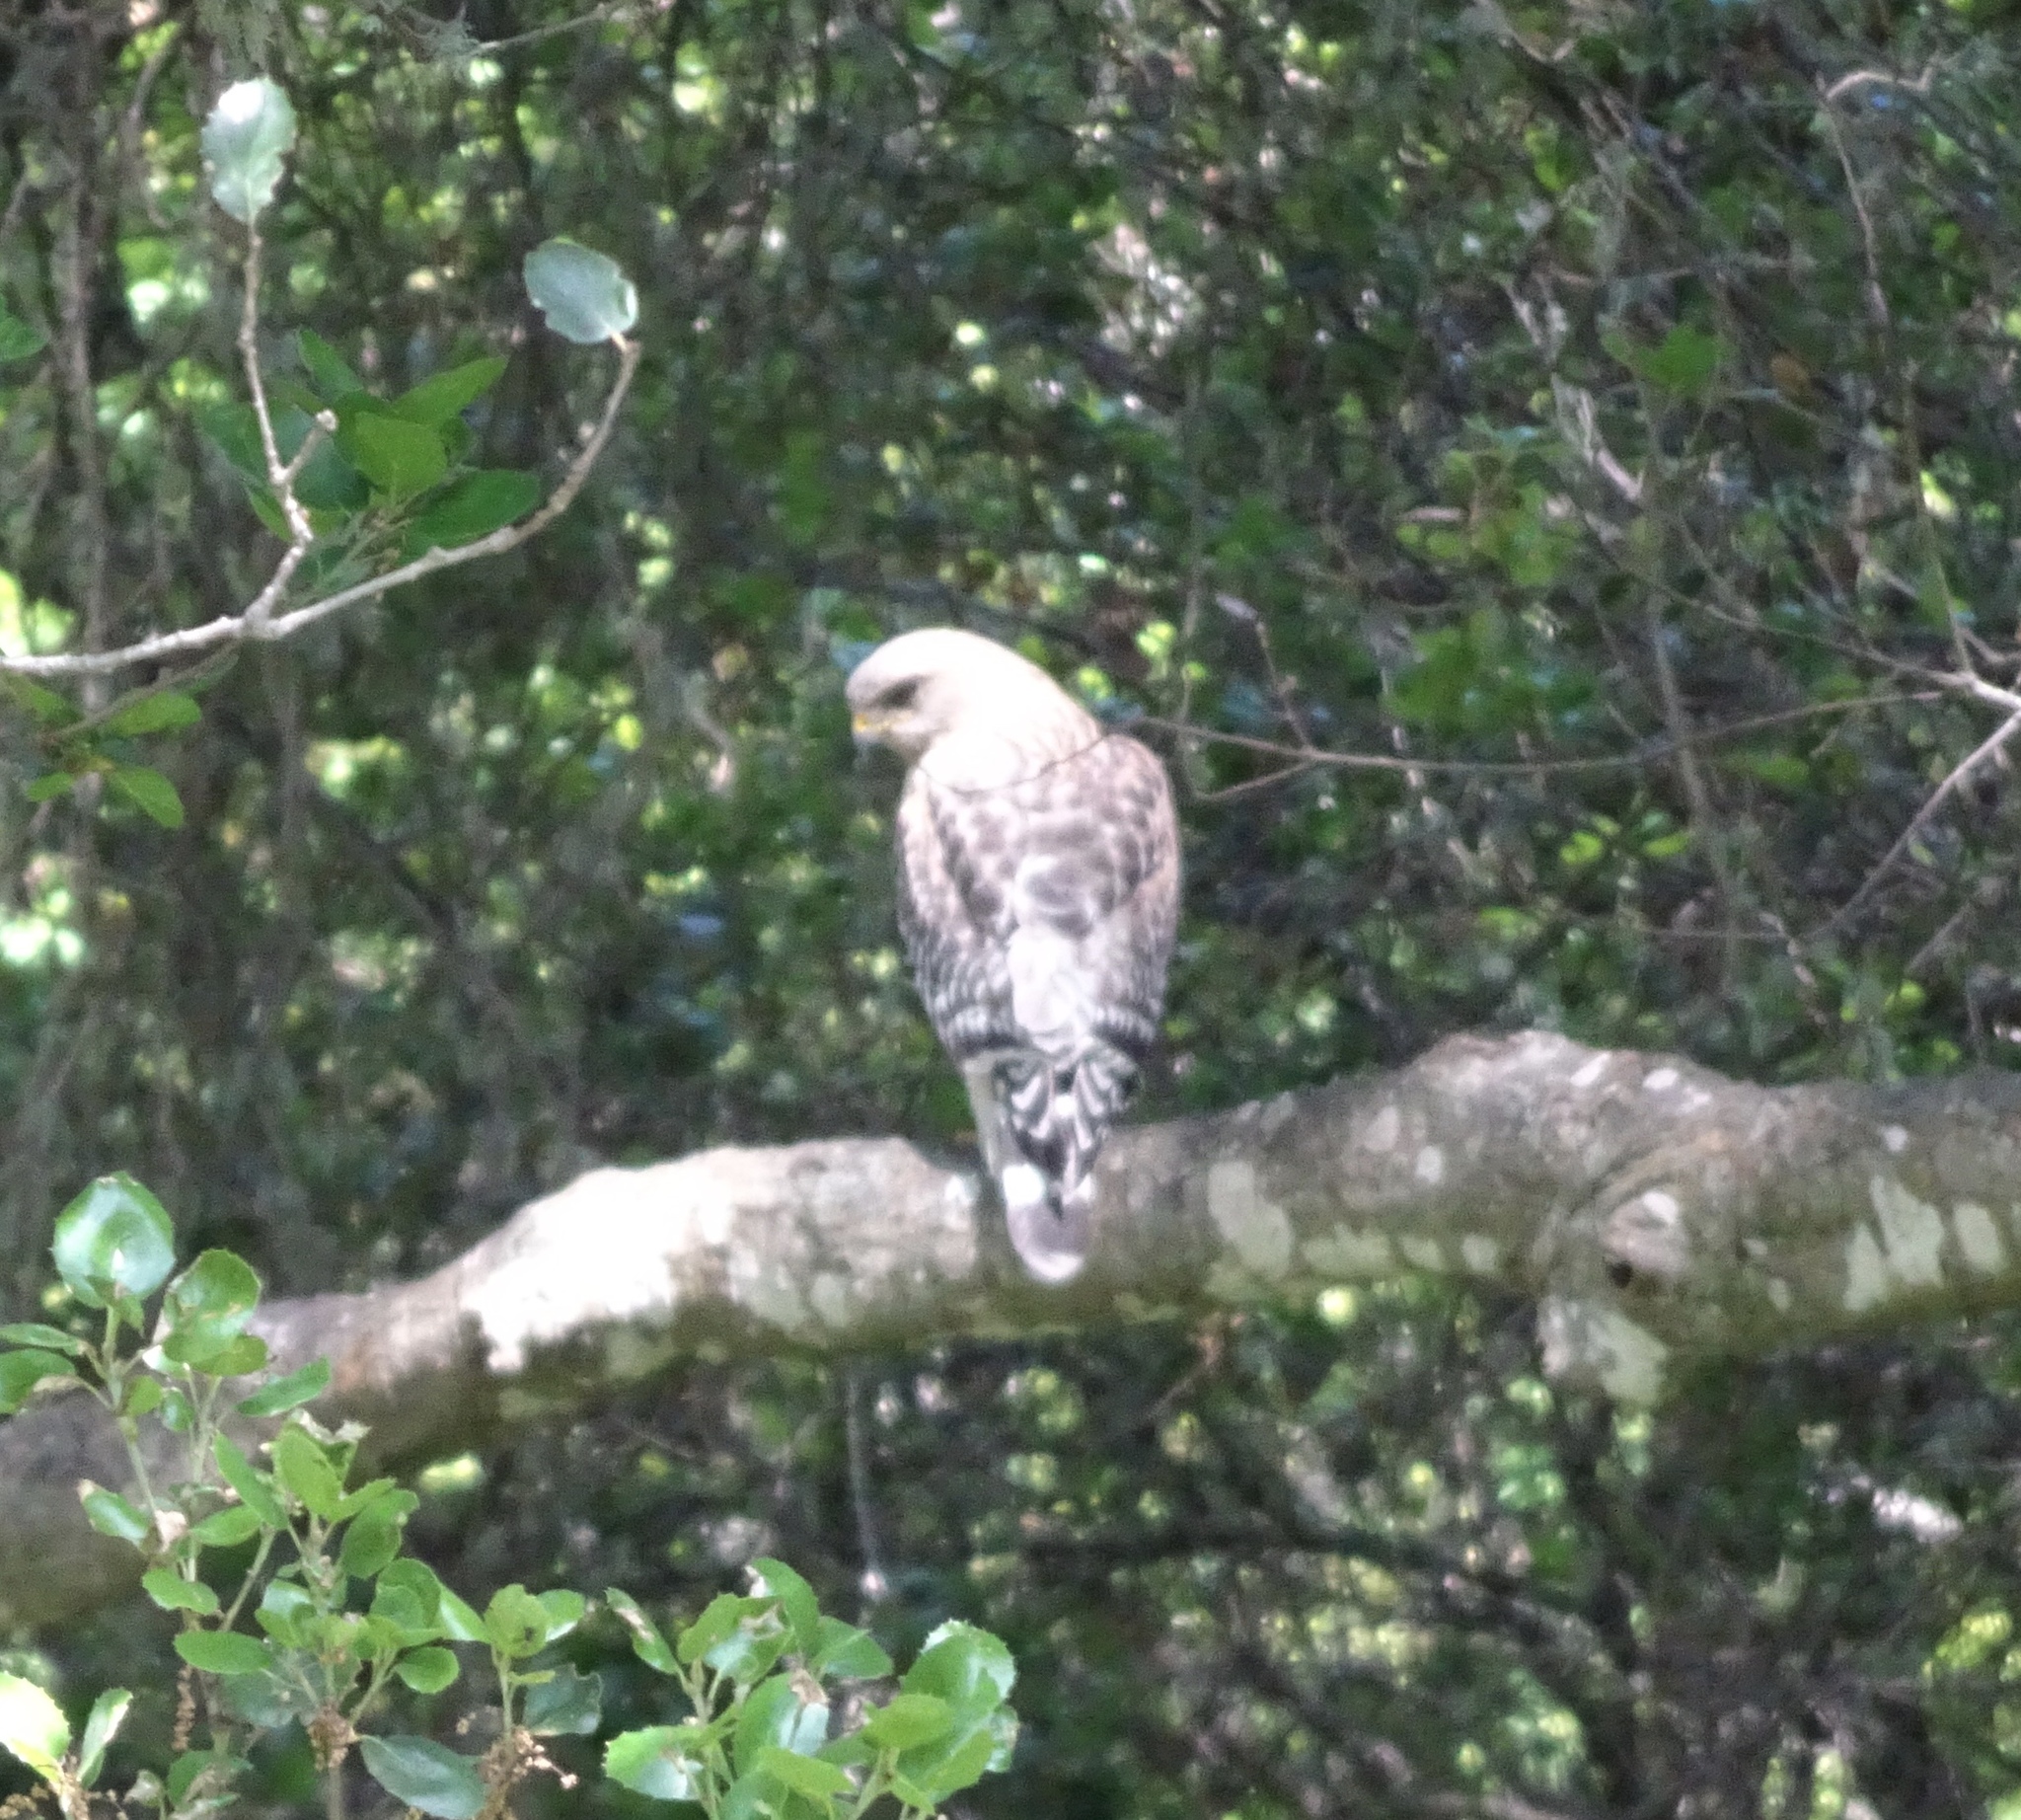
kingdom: Animalia
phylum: Chordata
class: Aves
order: Accipitriformes
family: Accipitridae
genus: Buteo
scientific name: Buteo lineatus
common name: Red-shouldered hawk
